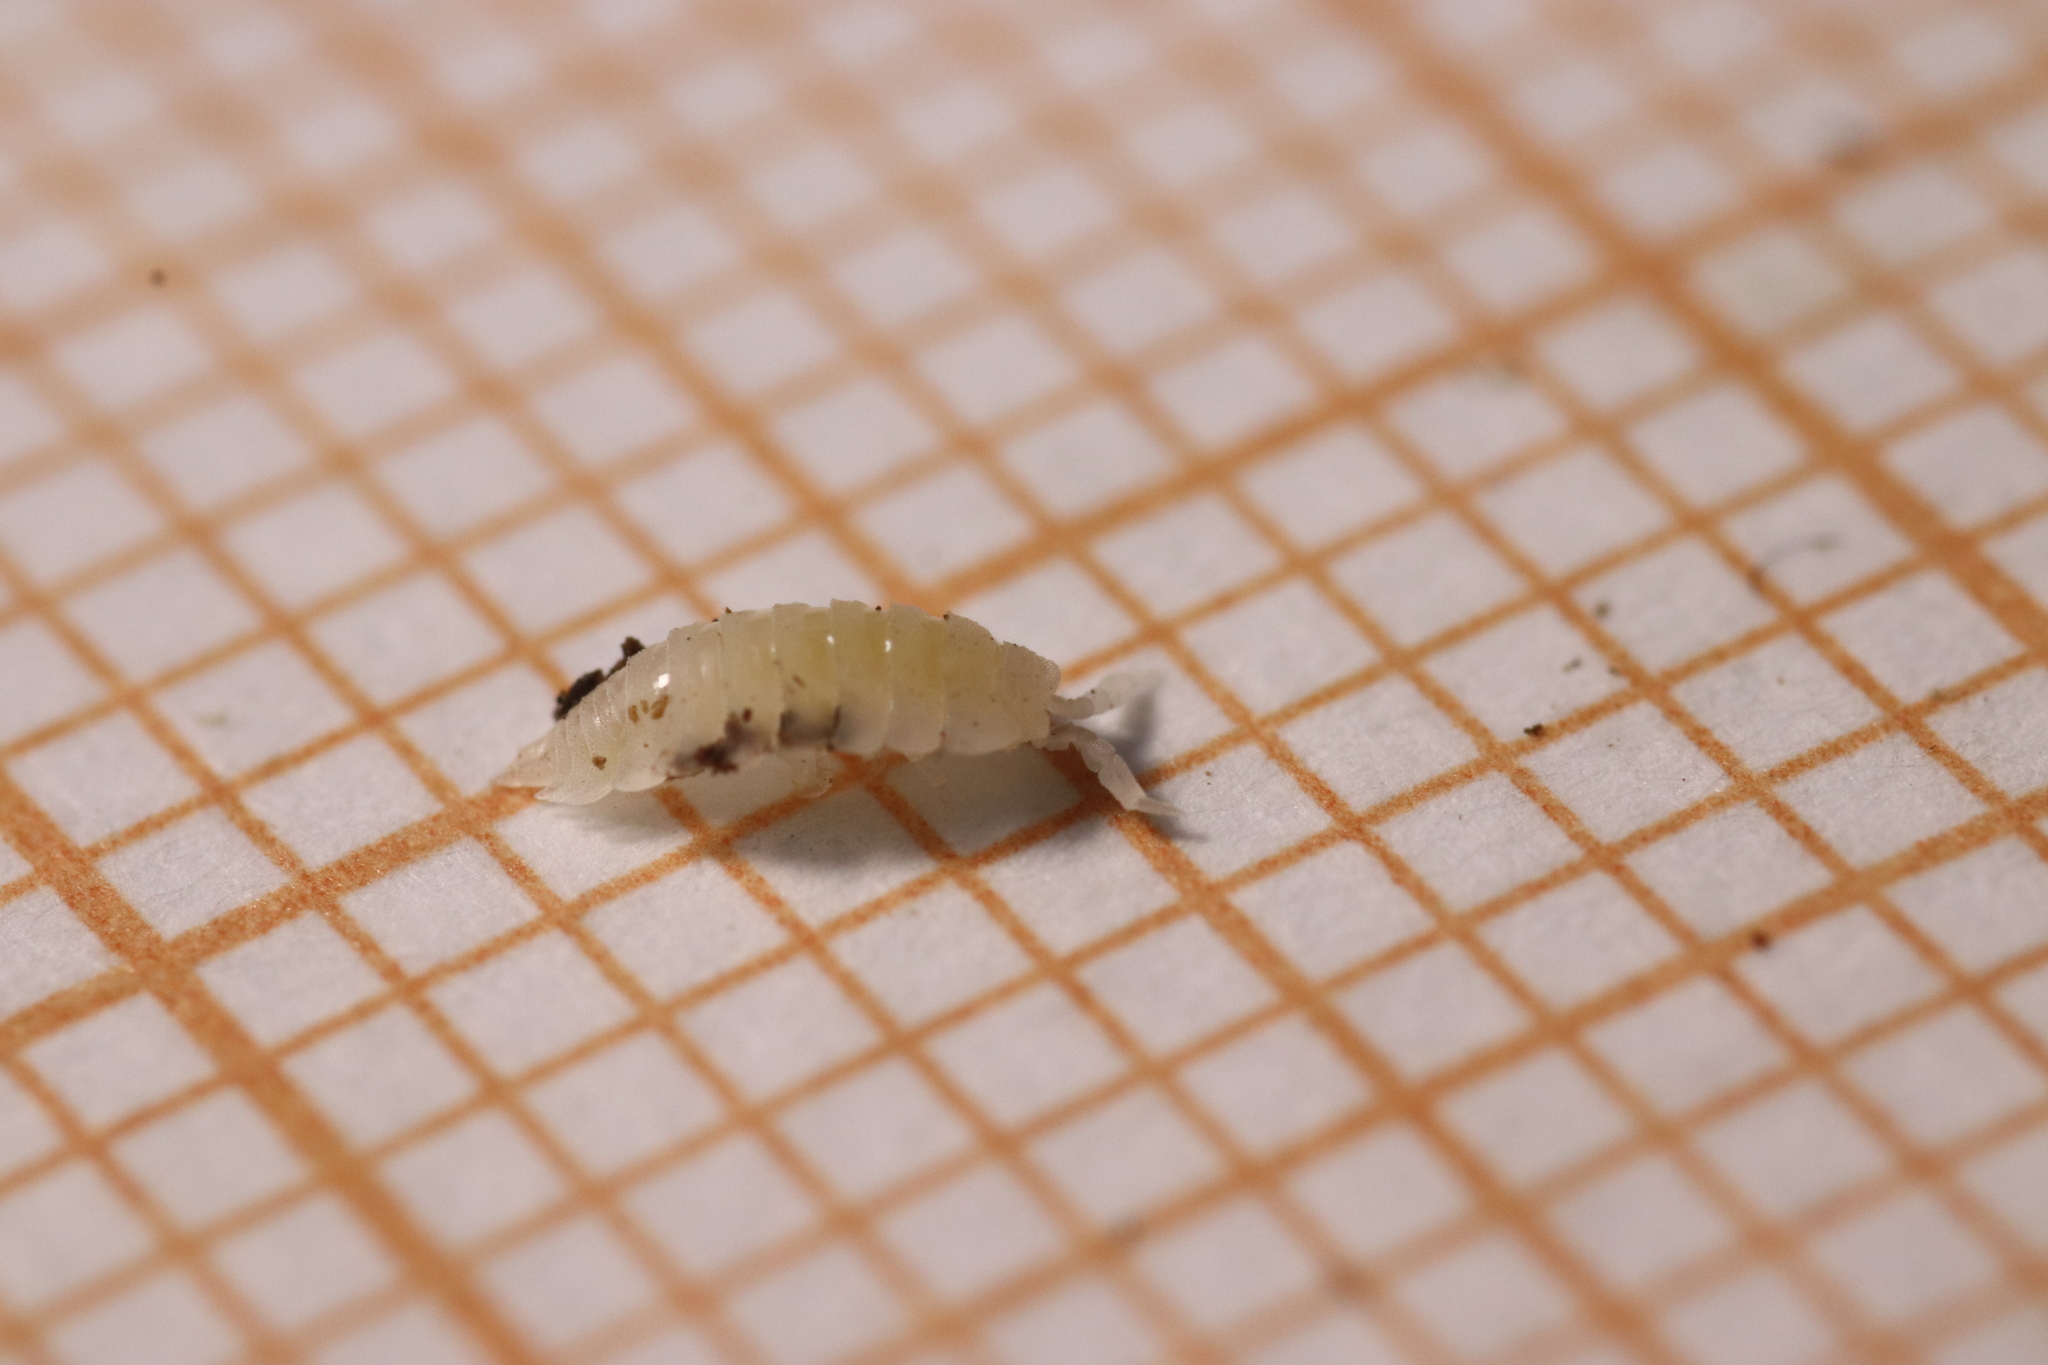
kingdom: Animalia
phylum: Arthropoda
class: Malacostraca
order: Isopoda
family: Platyarthridae
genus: Platyarthrus
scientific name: Platyarthrus hoffmannseggii
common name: Ant woodlouse
